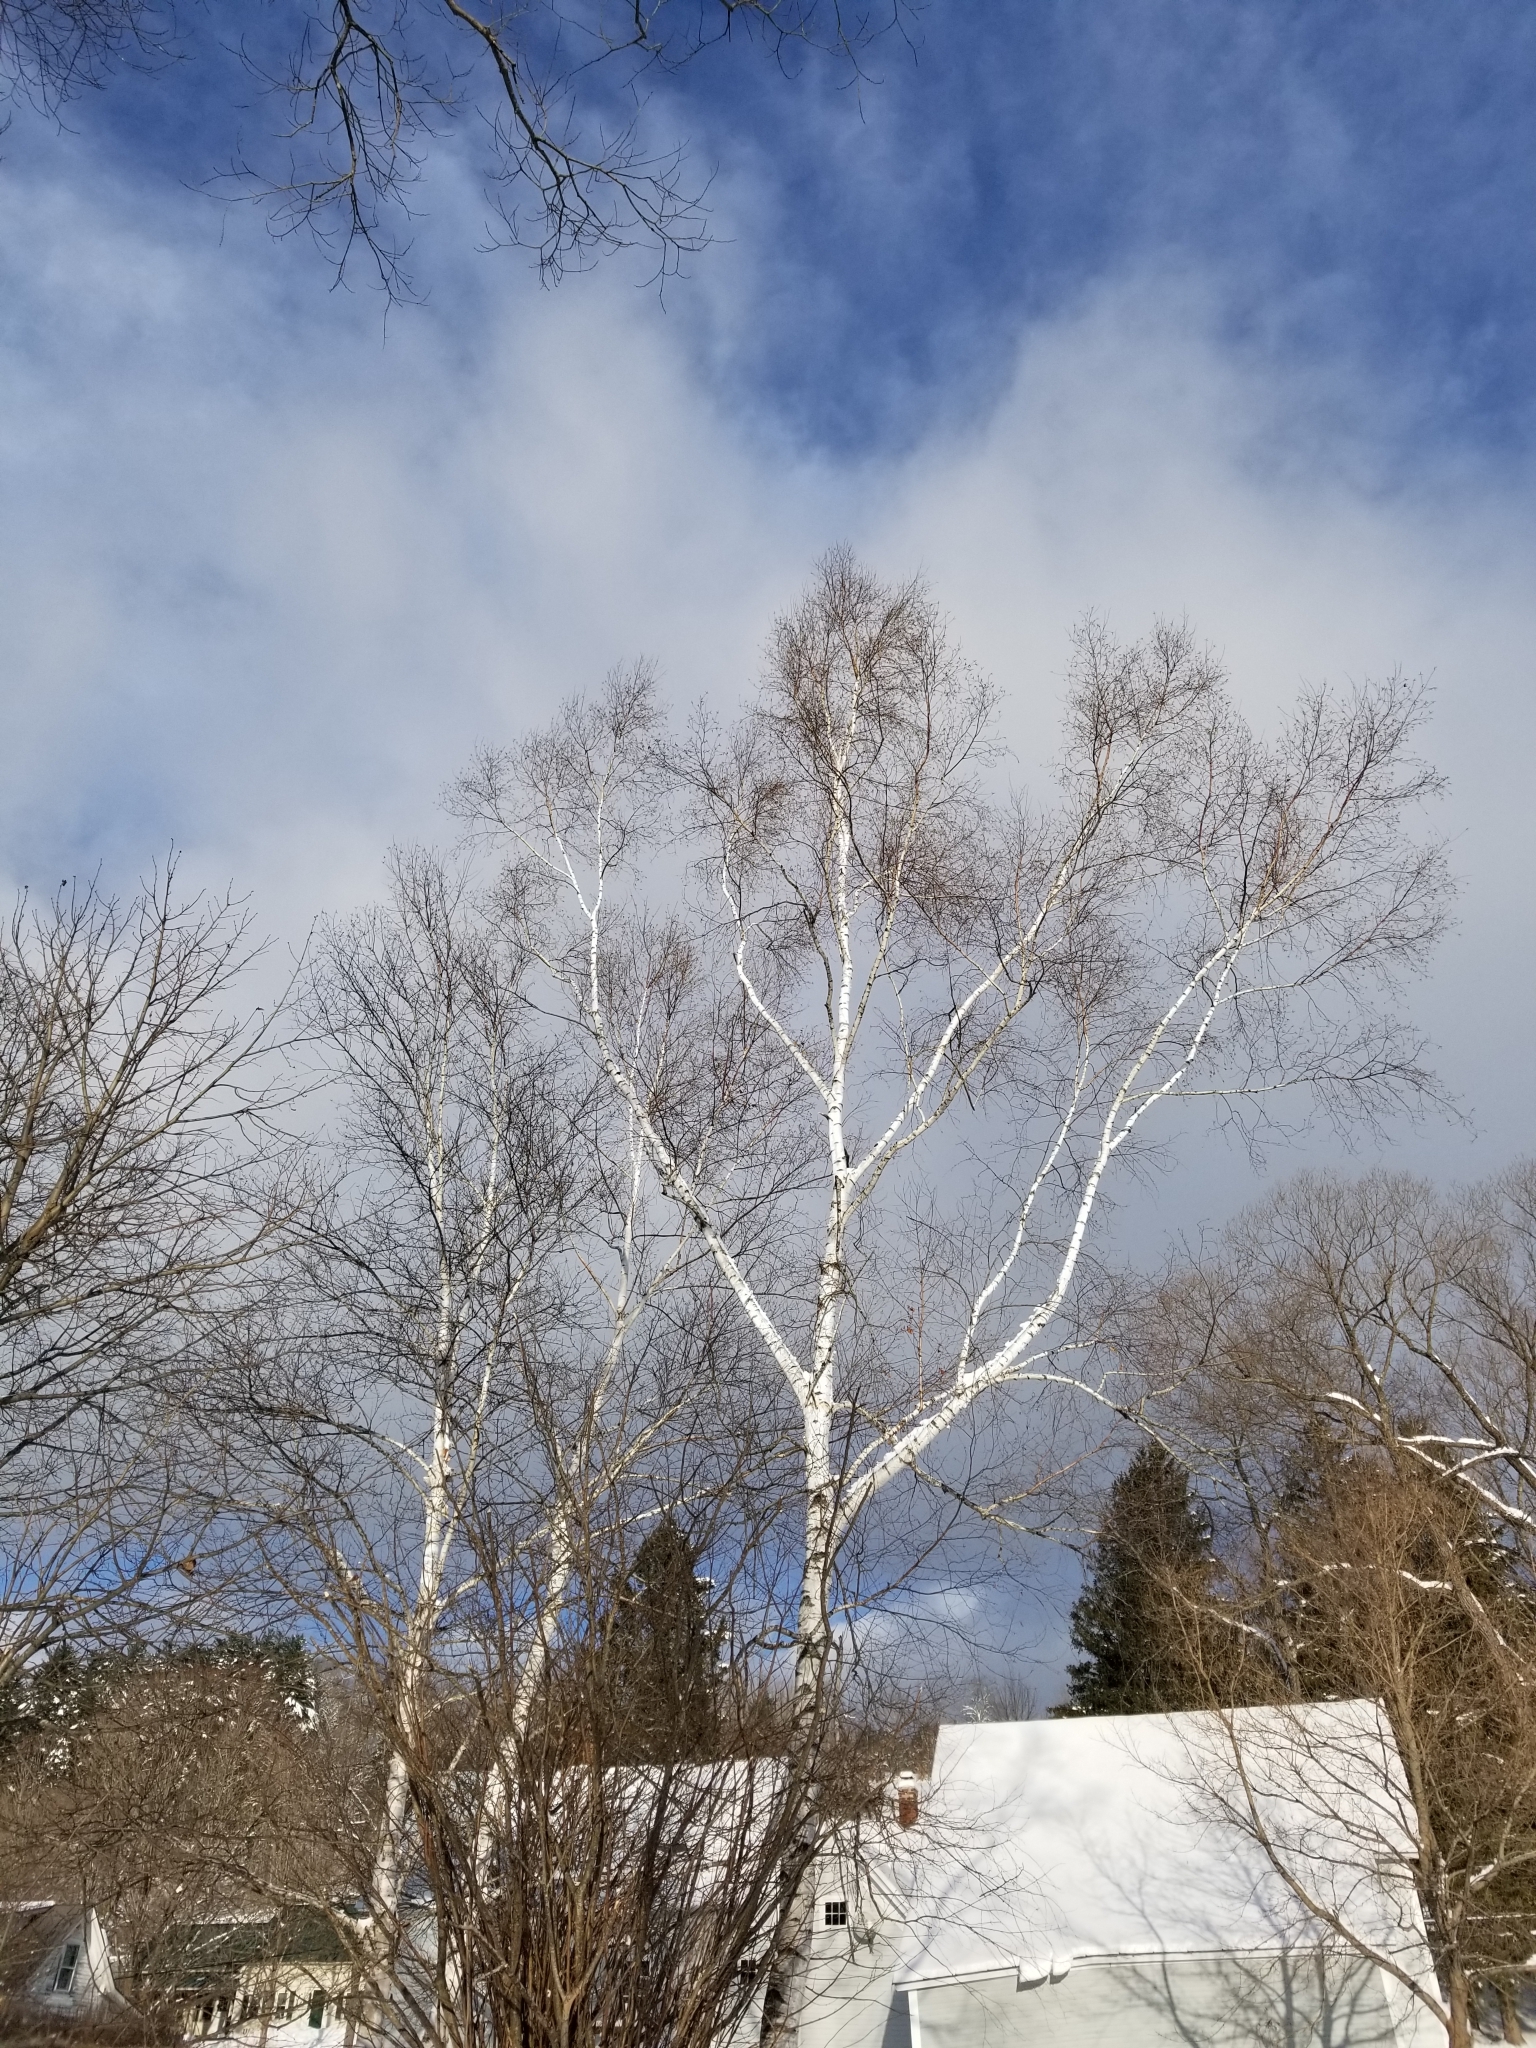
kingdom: Plantae
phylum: Tracheophyta
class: Magnoliopsida
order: Fagales
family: Betulaceae
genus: Betula
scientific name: Betula papyrifera
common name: Paper birch
